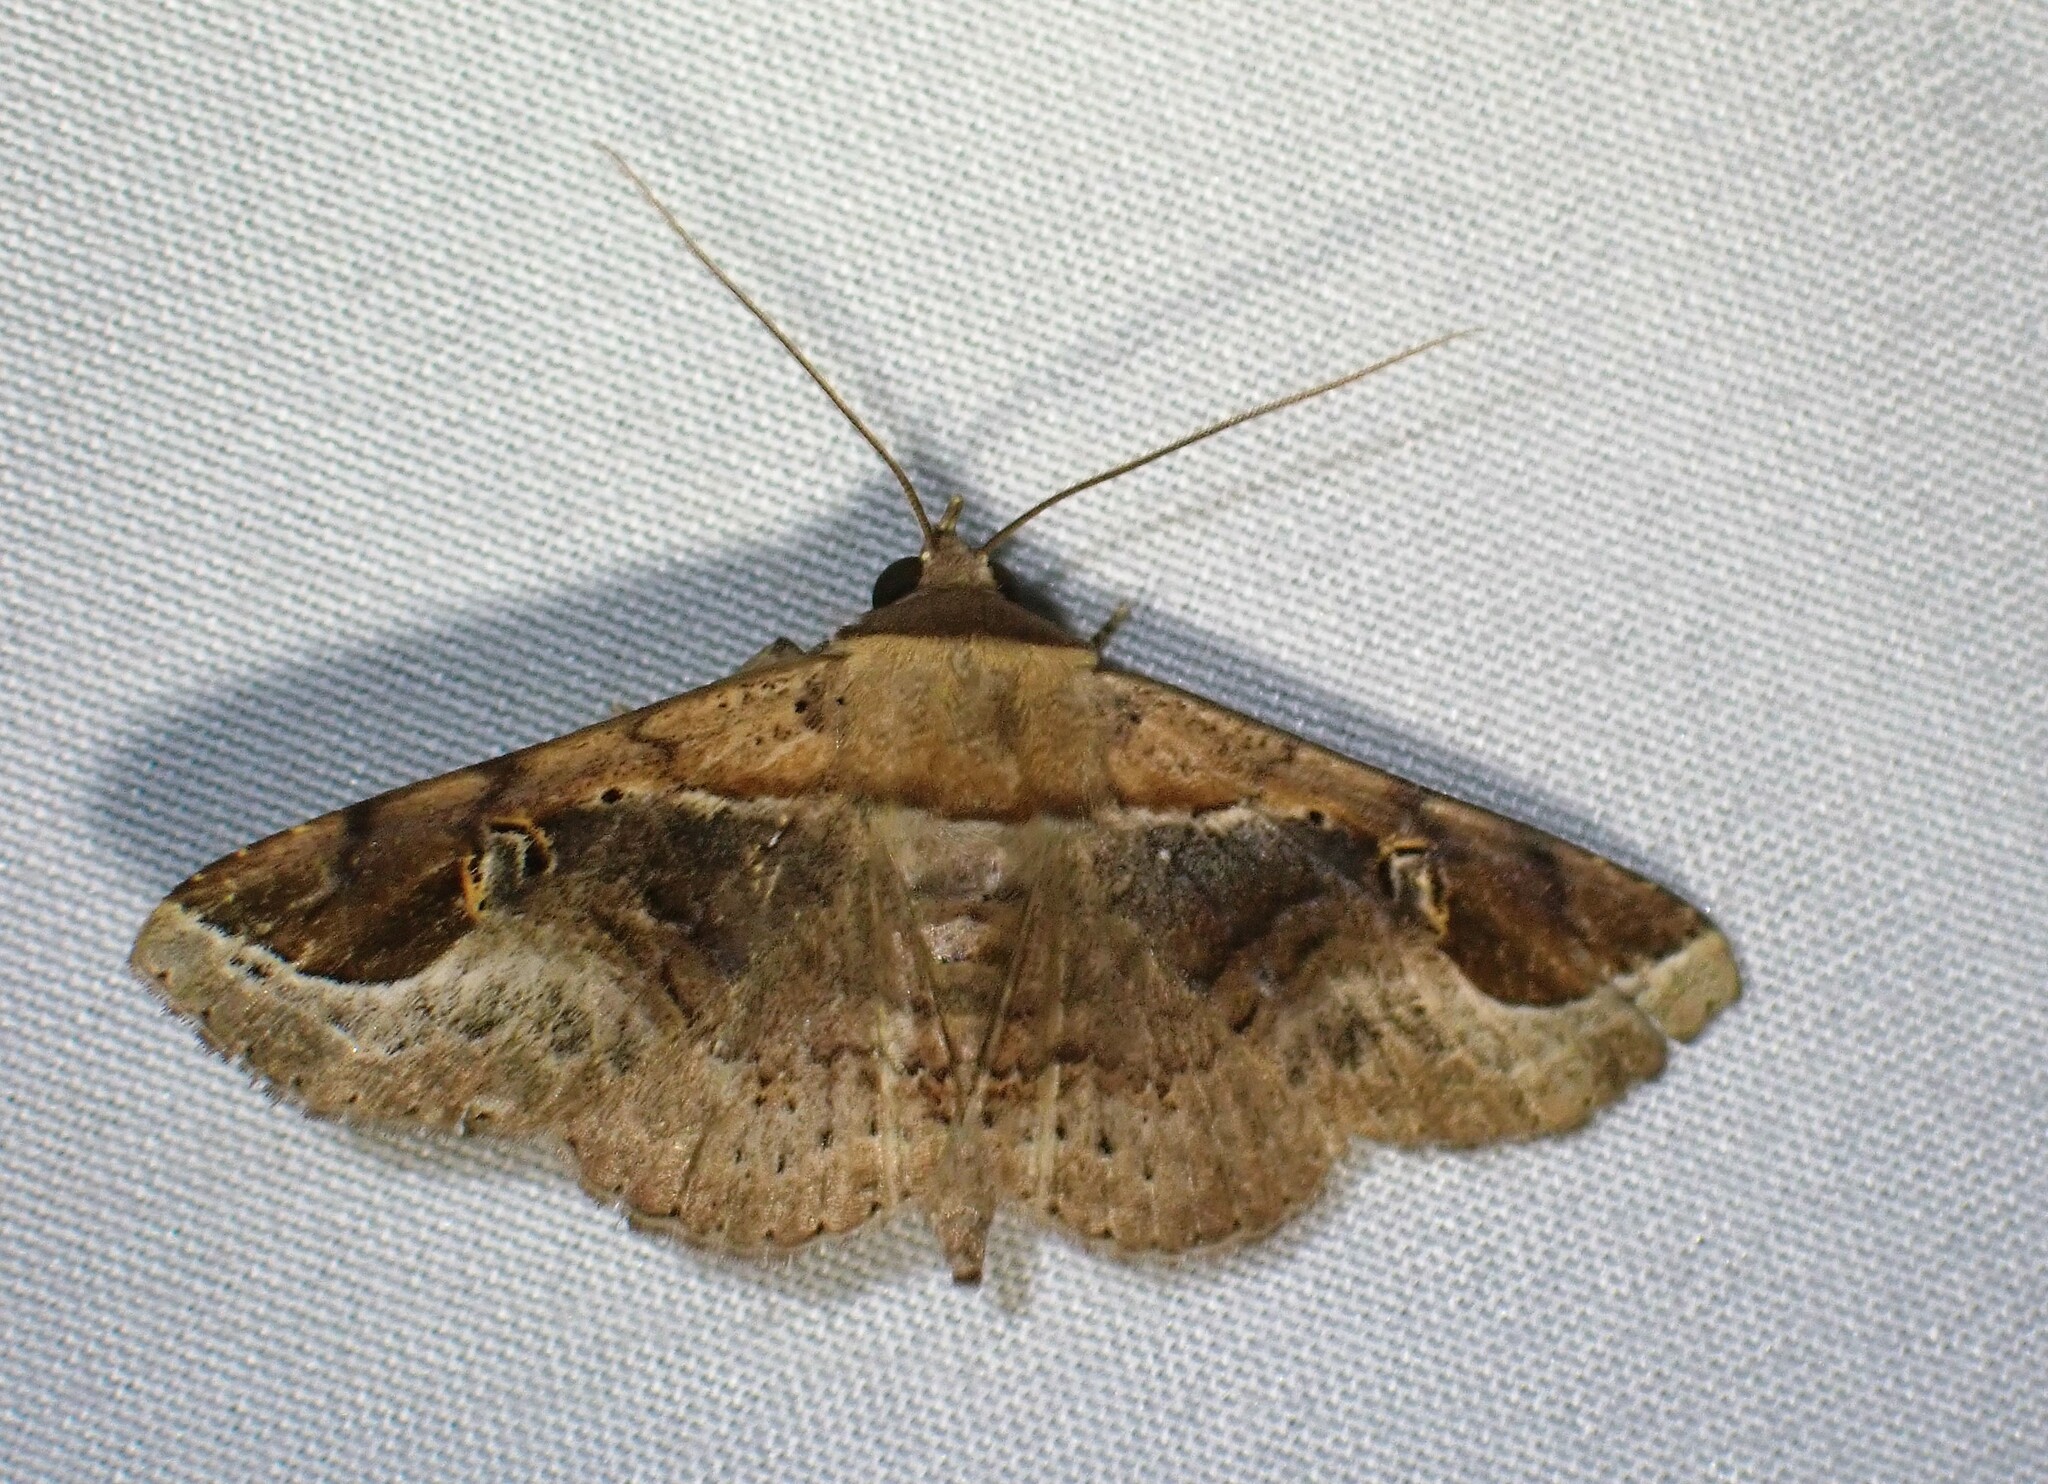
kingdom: Animalia
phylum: Arthropoda
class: Insecta
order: Lepidoptera
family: Erebidae
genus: Massala
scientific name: Massala obvertens
